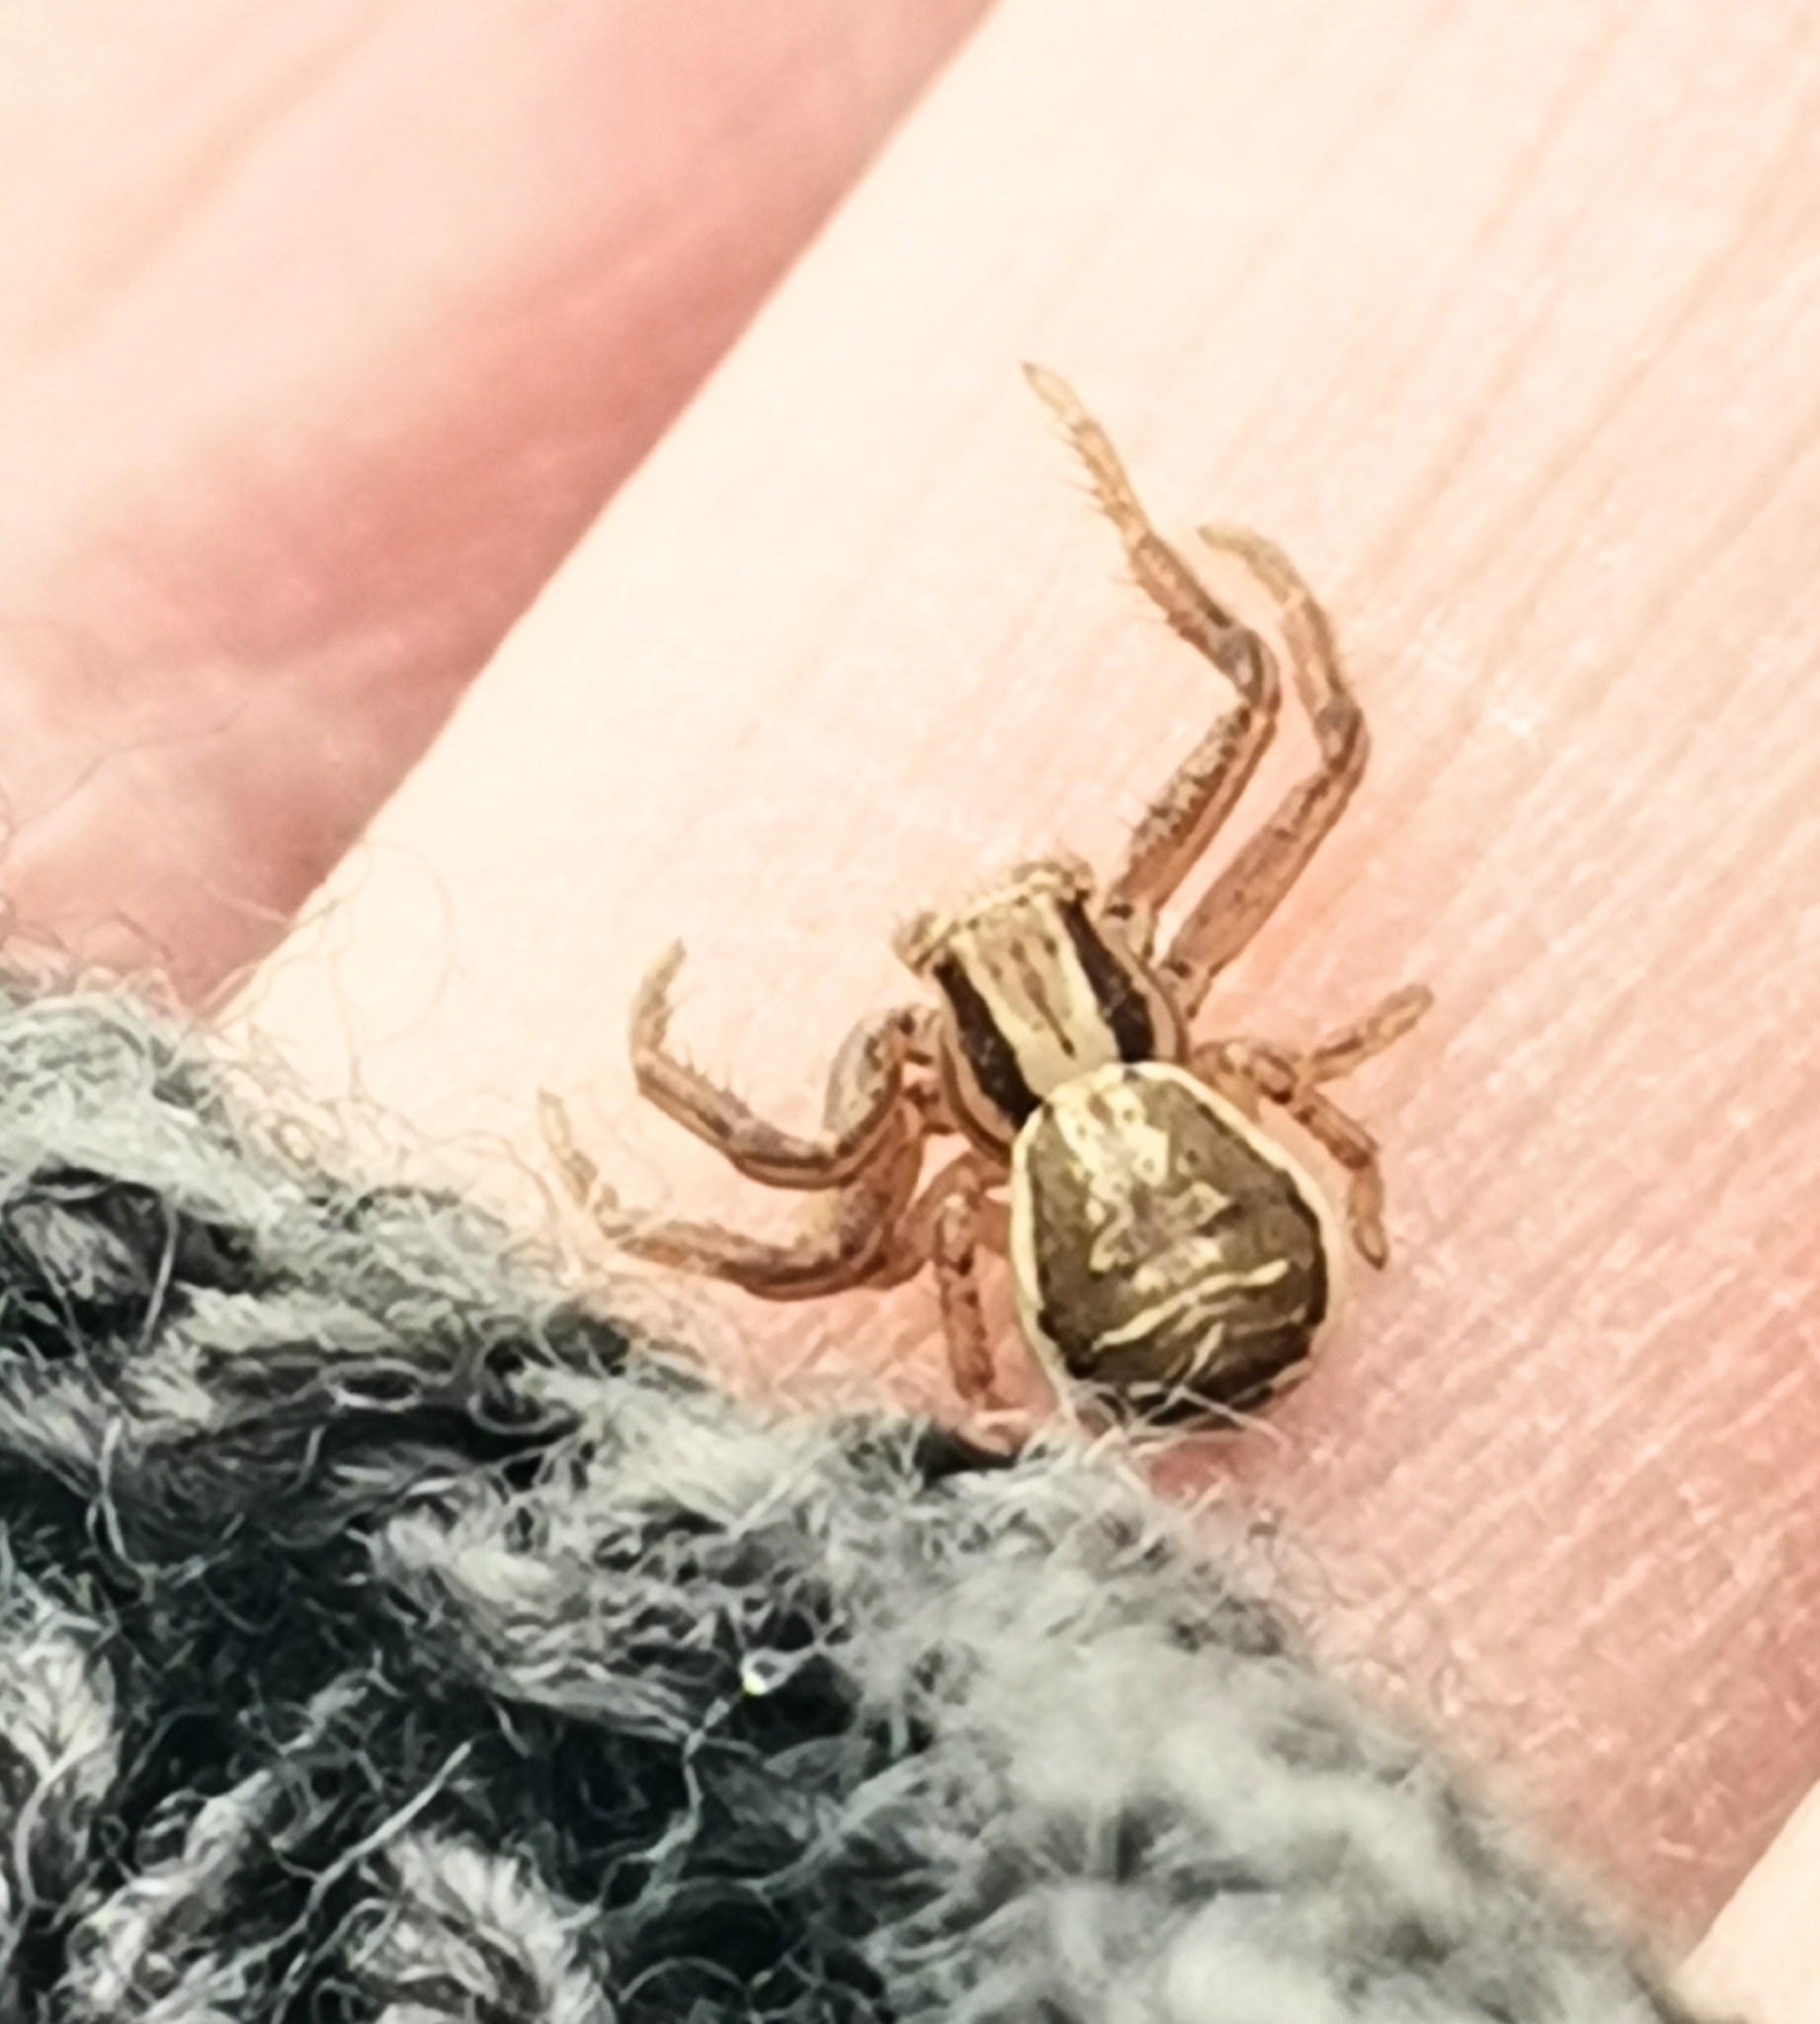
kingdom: Animalia
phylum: Arthropoda
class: Arachnida
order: Araneae
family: Thomisidae
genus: Xysticus
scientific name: Xysticus ulmi
